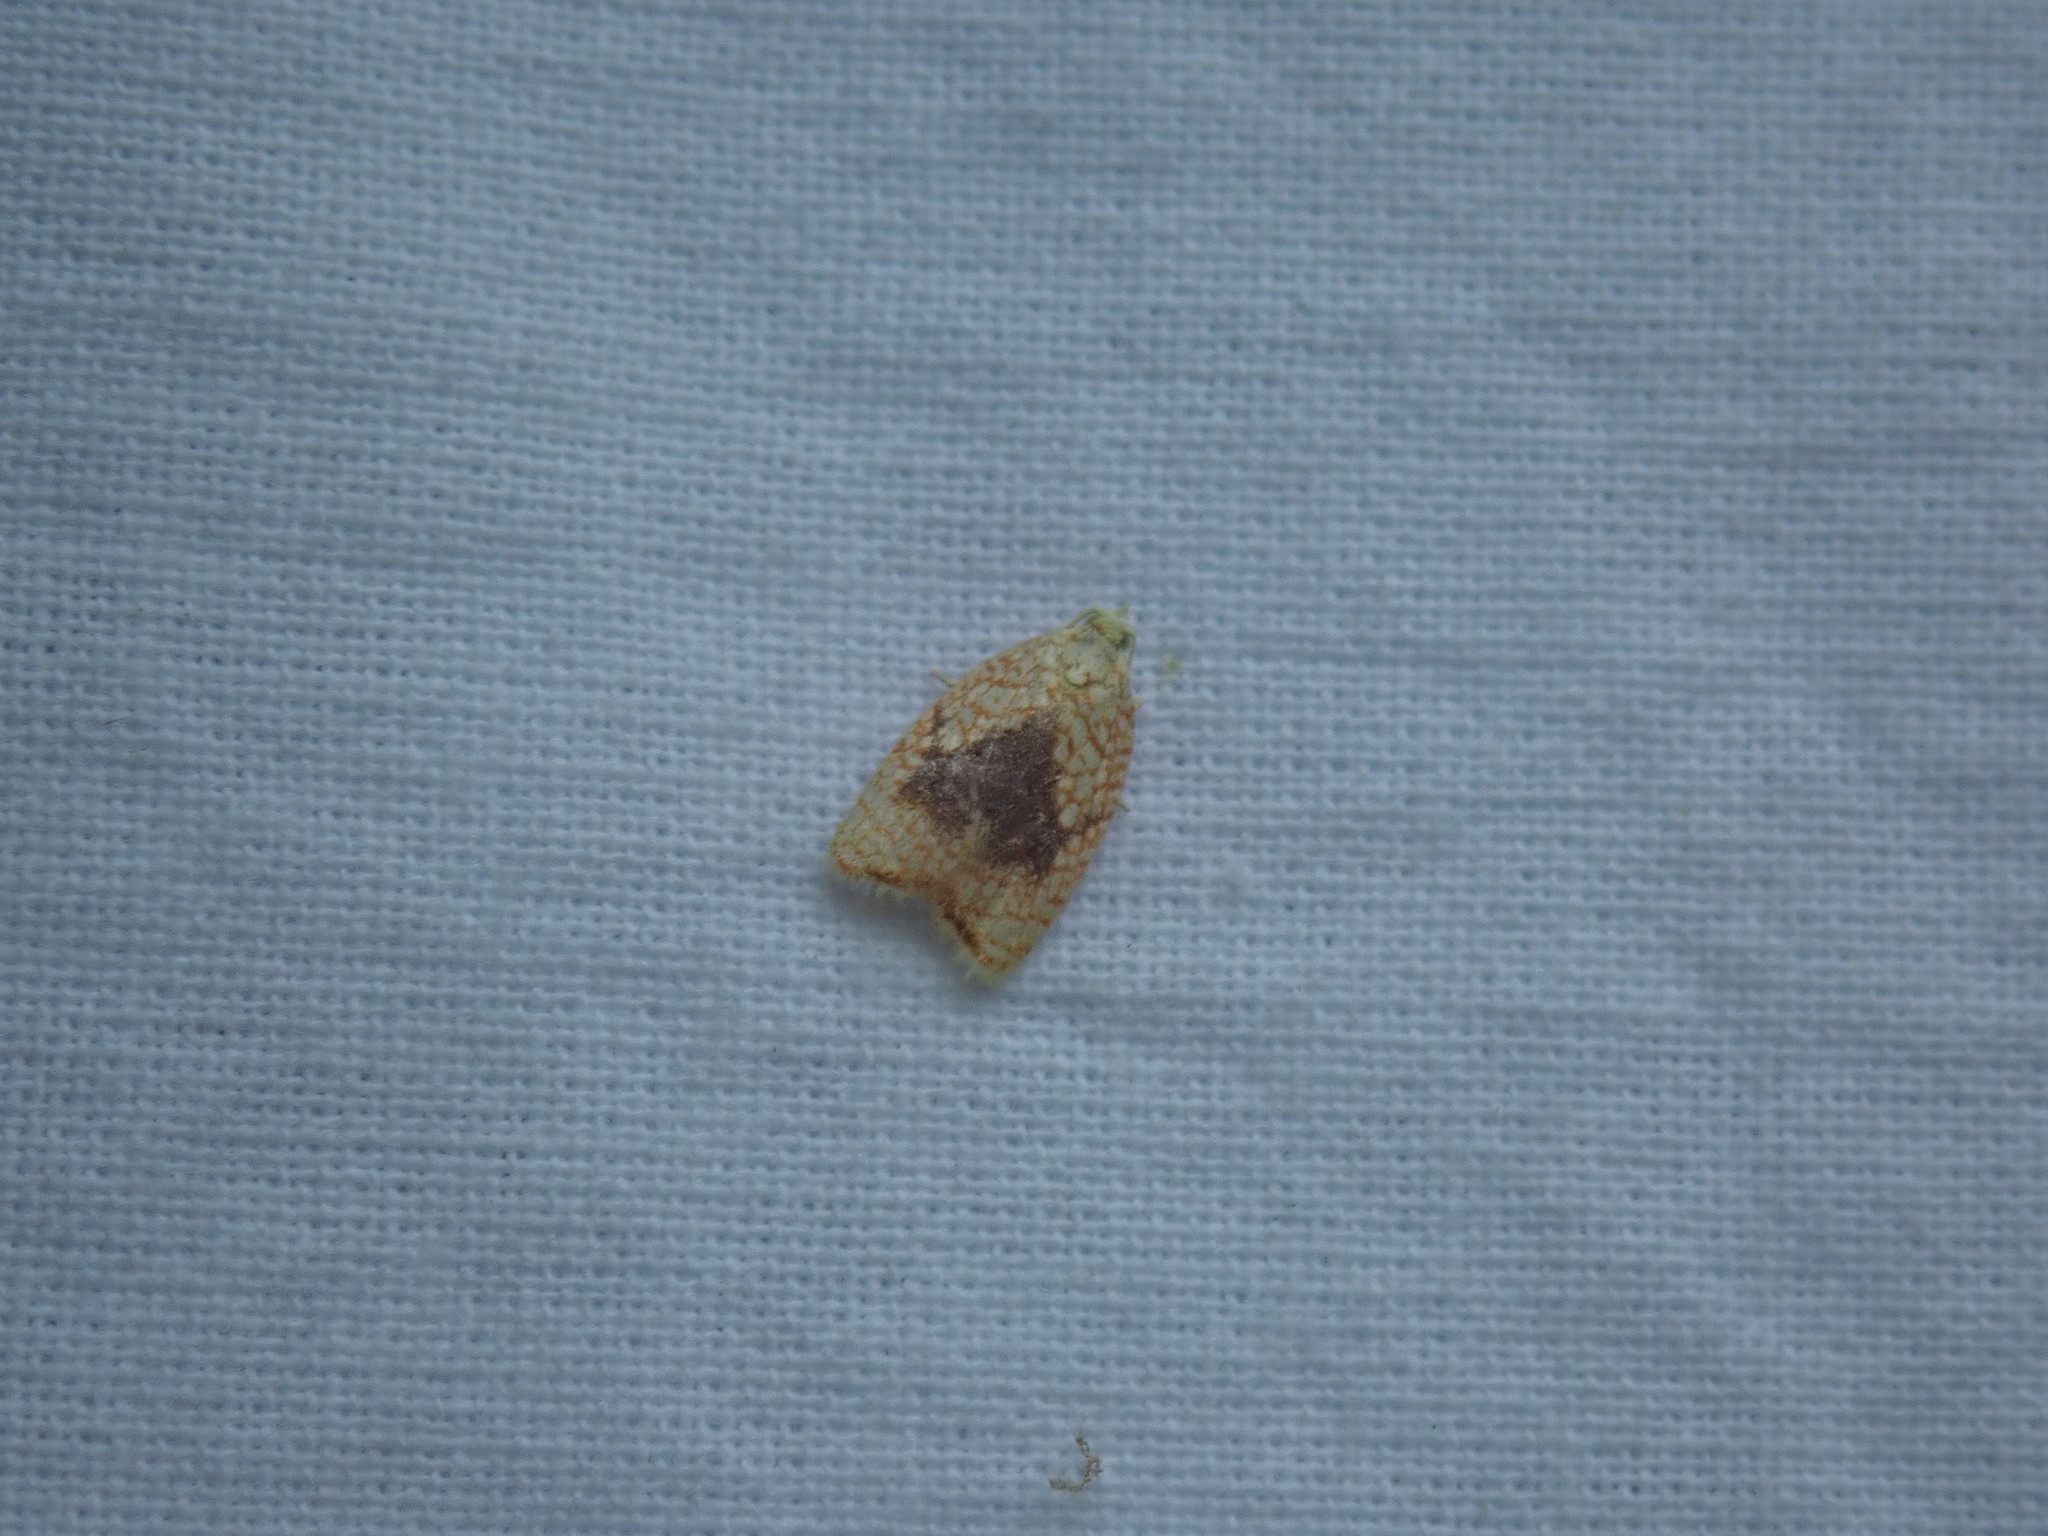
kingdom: Animalia
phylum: Arthropoda
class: Insecta
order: Lepidoptera
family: Tortricidae
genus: Acleris
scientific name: Acleris forsskaleana
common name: Maple button
